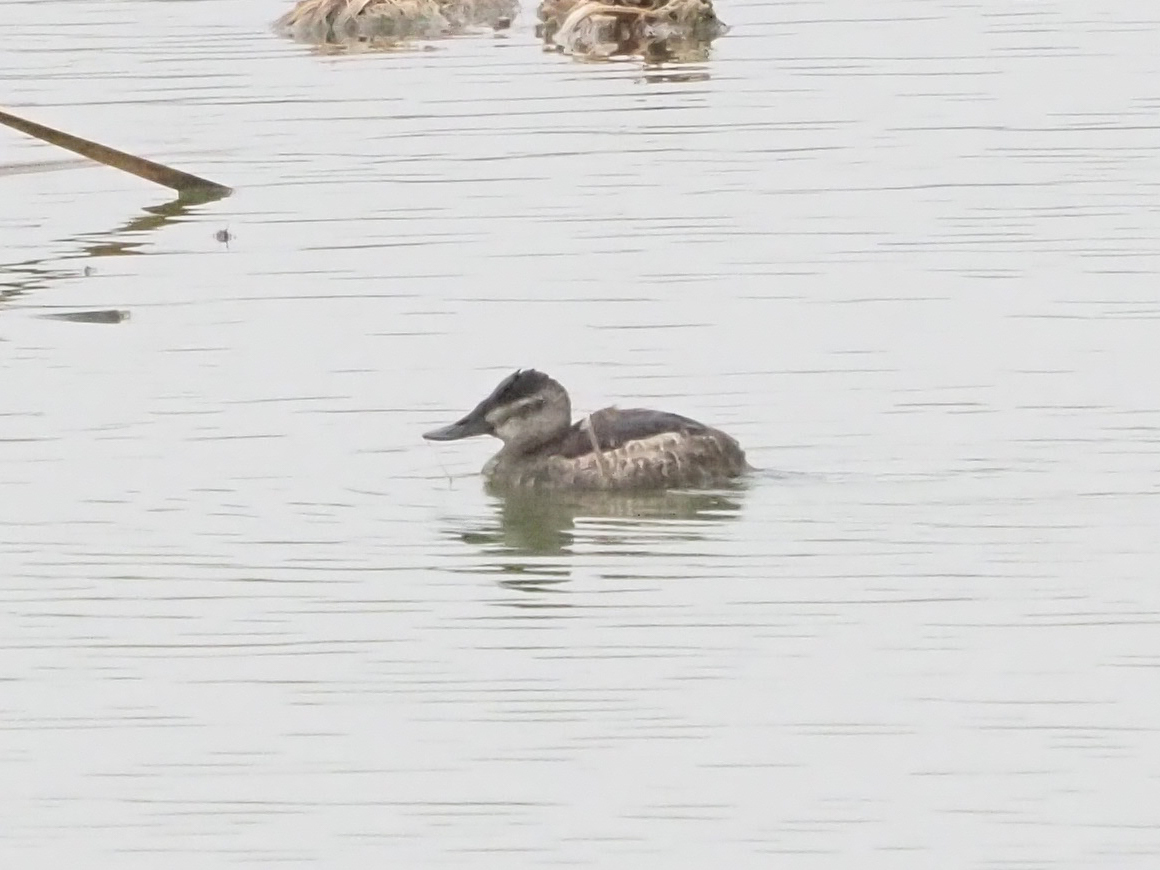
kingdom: Animalia
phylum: Chordata
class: Aves
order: Anseriformes
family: Anatidae
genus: Oxyura
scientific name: Oxyura jamaicensis
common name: Ruddy duck
